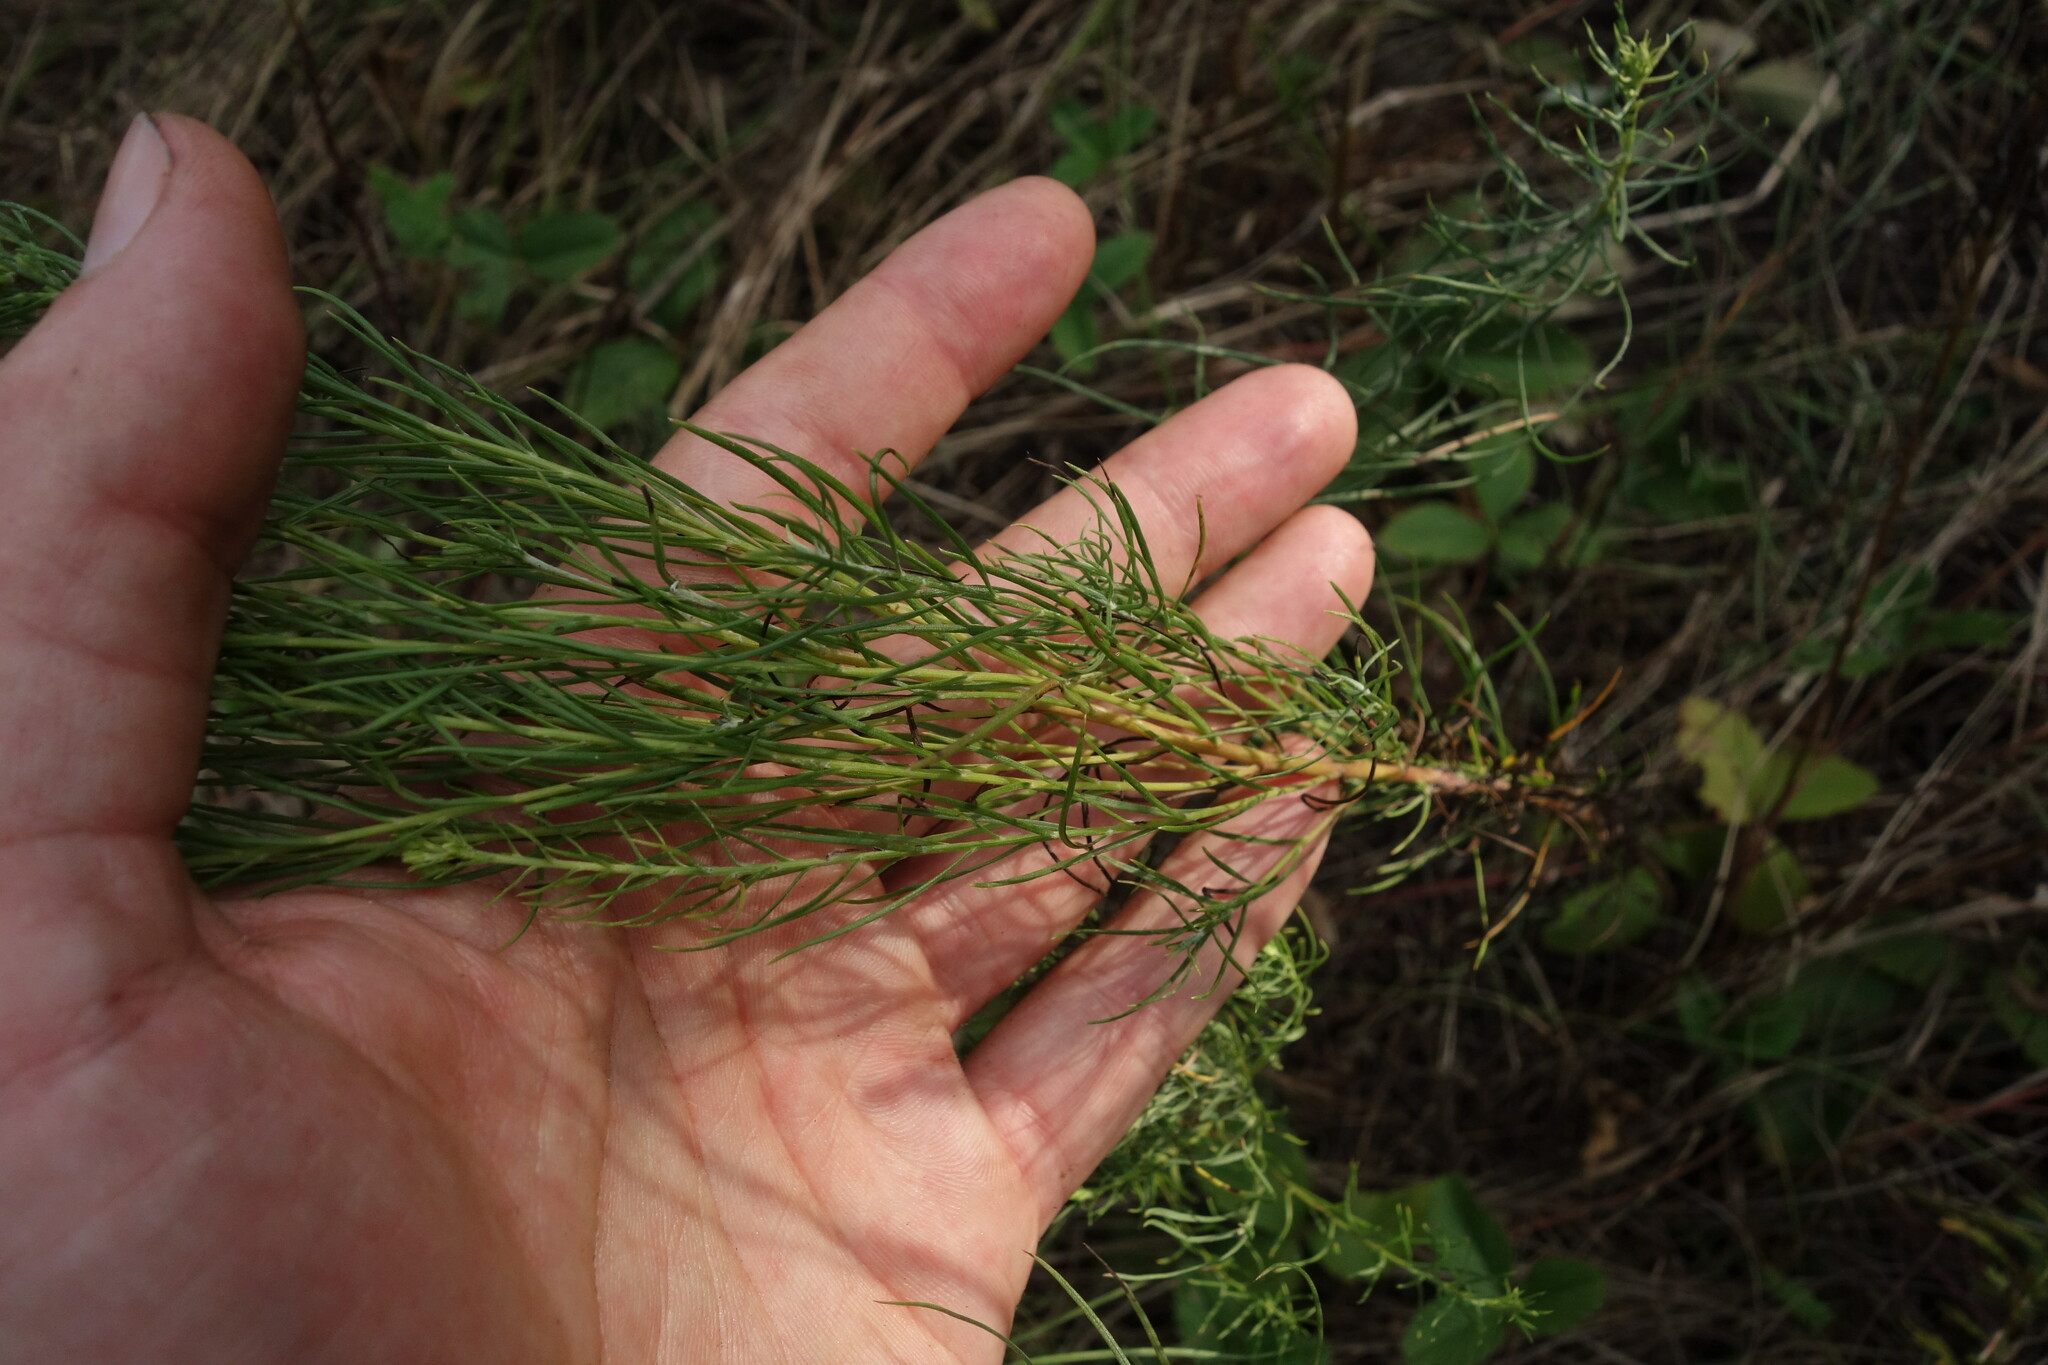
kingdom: Plantae
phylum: Tracheophyta
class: Magnoliopsida
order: Asterales
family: Asteraceae
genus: Galatella
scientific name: Galatella linosyris
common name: Goldilocks aster
